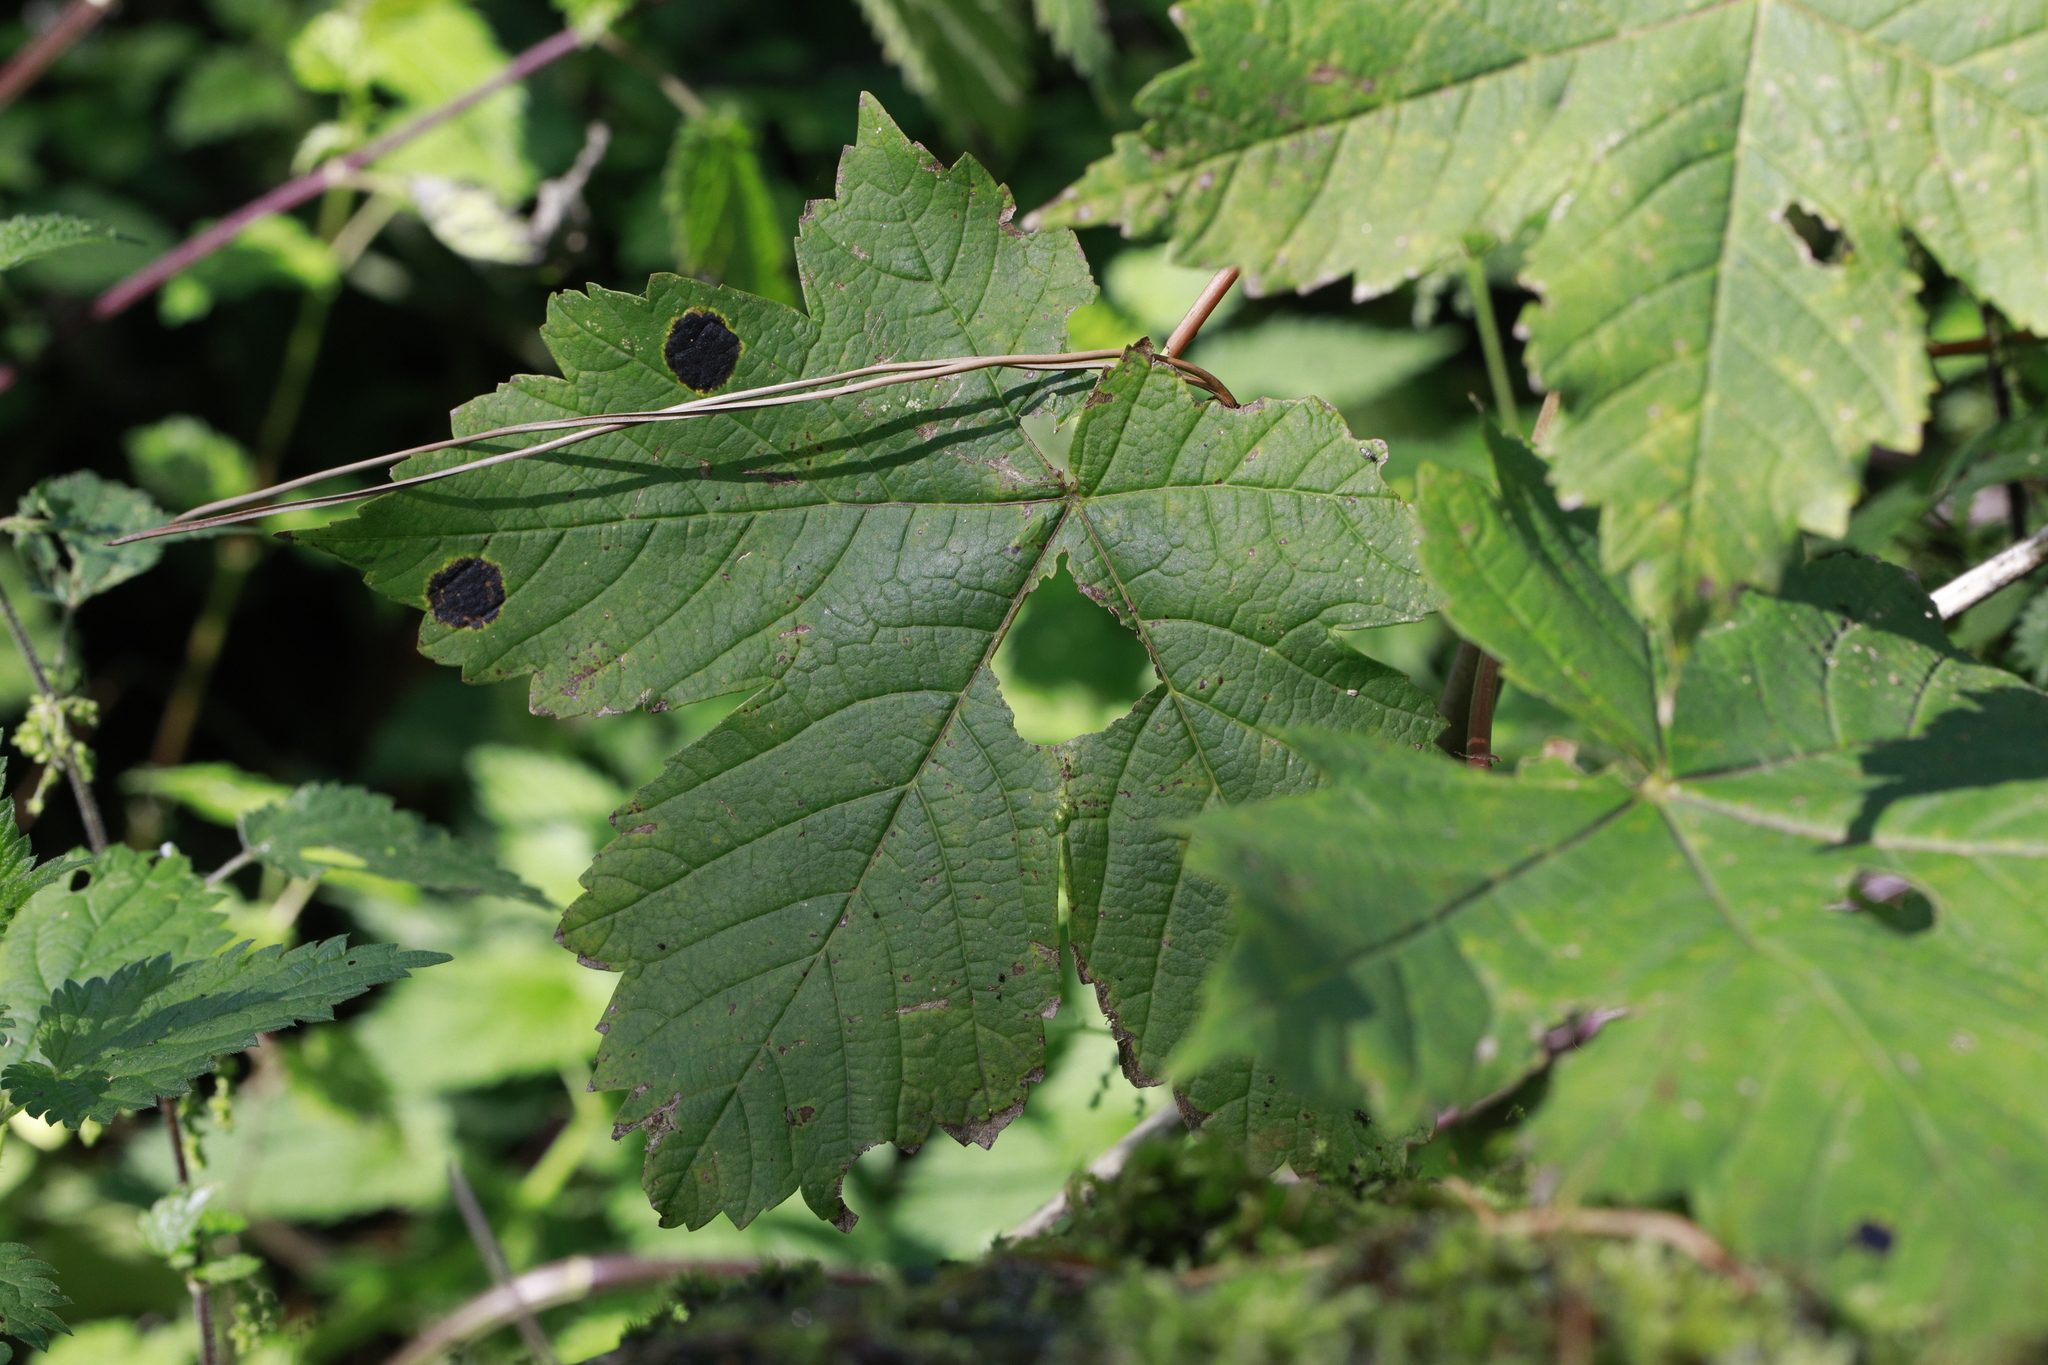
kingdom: Fungi
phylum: Ascomycota
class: Leotiomycetes
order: Rhytismatales
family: Rhytismataceae
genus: Rhytisma
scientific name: Rhytisma acerinum
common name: European tar spot
